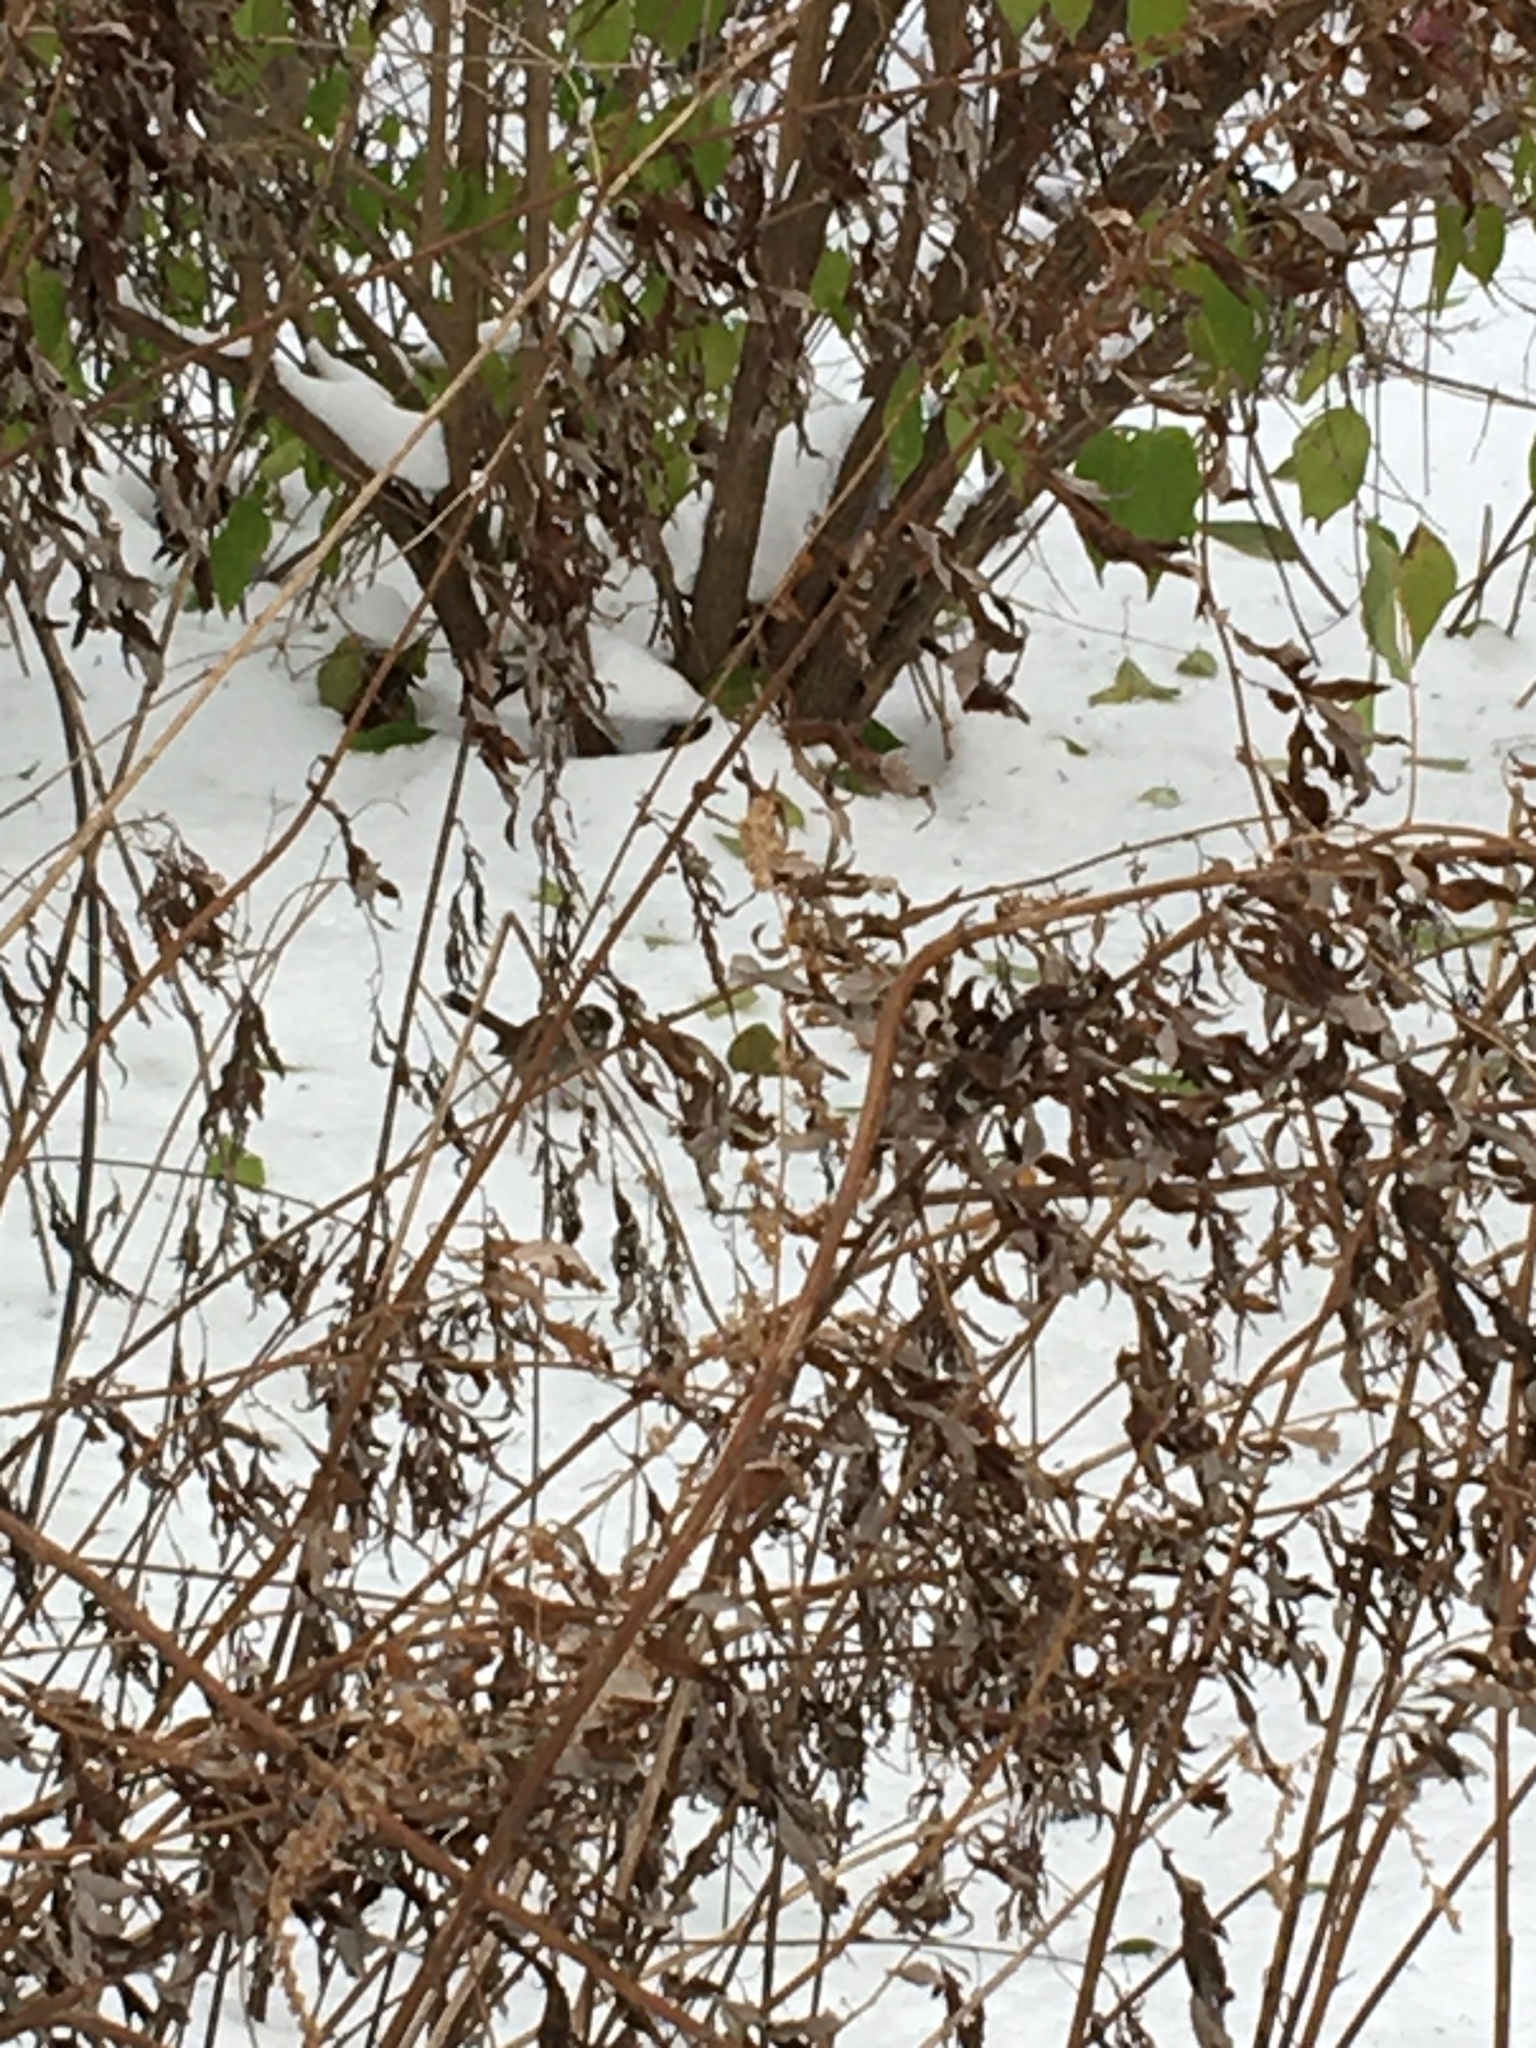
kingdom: Plantae
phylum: Tracheophyta
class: Magnoliopsida
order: Asterales
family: Asteraceae
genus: Artemisia
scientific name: Artemisia vulgaris
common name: Mugwort
